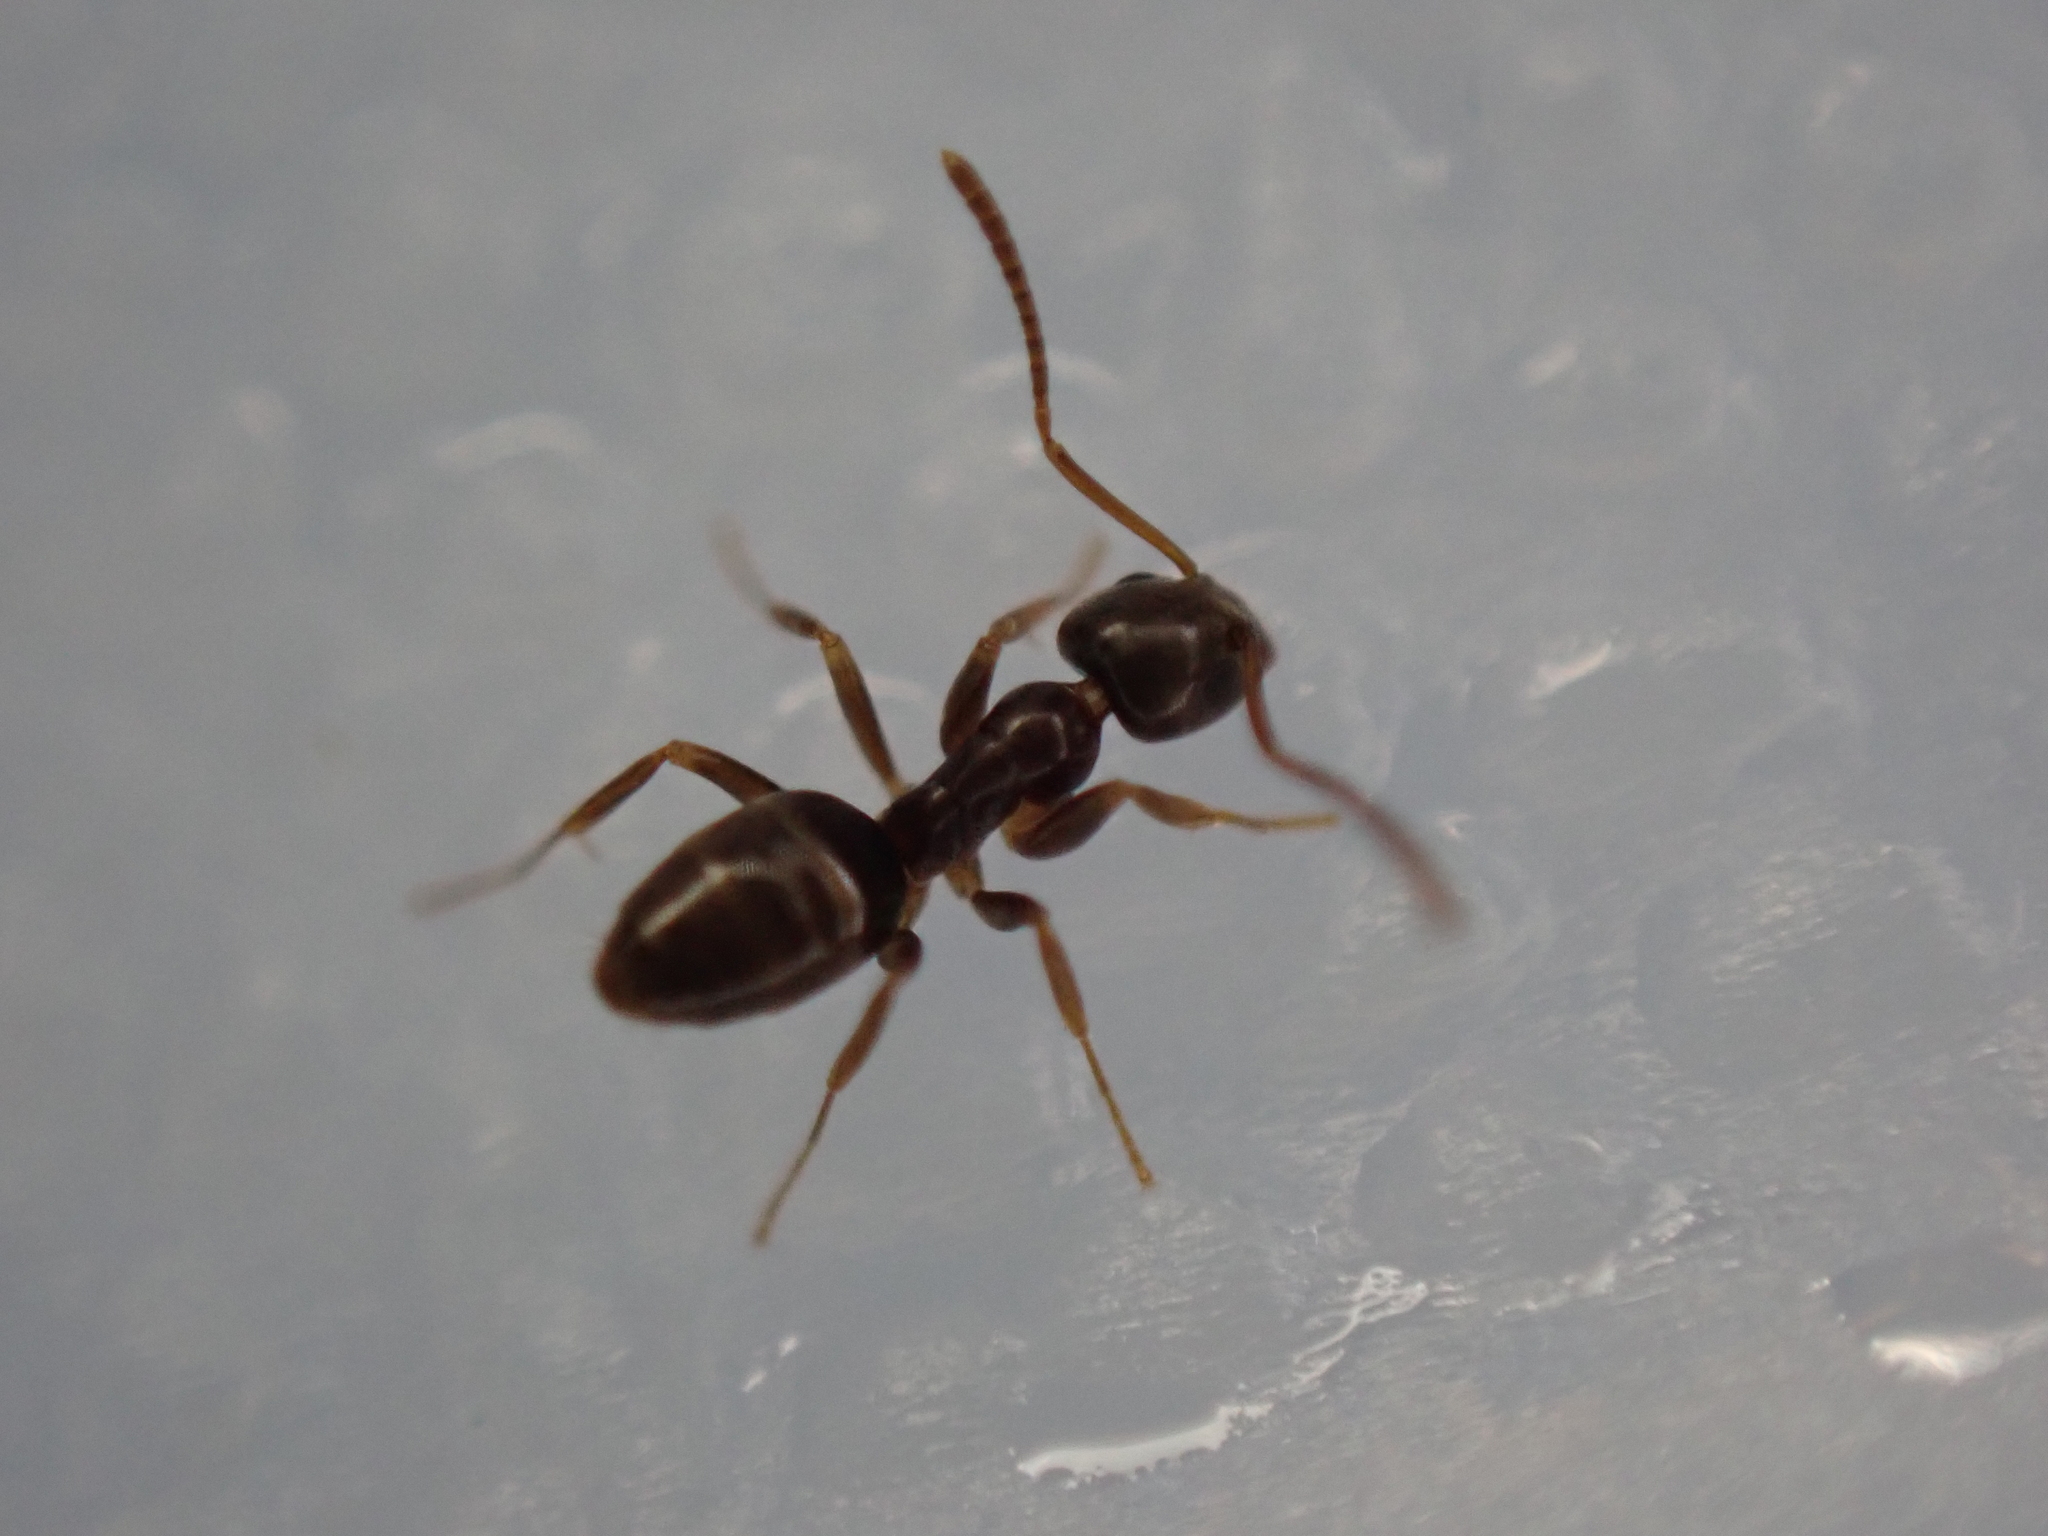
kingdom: Animalia
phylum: Arthropoda
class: Insecta
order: Hymenoptera
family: Formicidae
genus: Tapinoma
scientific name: Tapinoma sessile
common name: Odorous house ant
